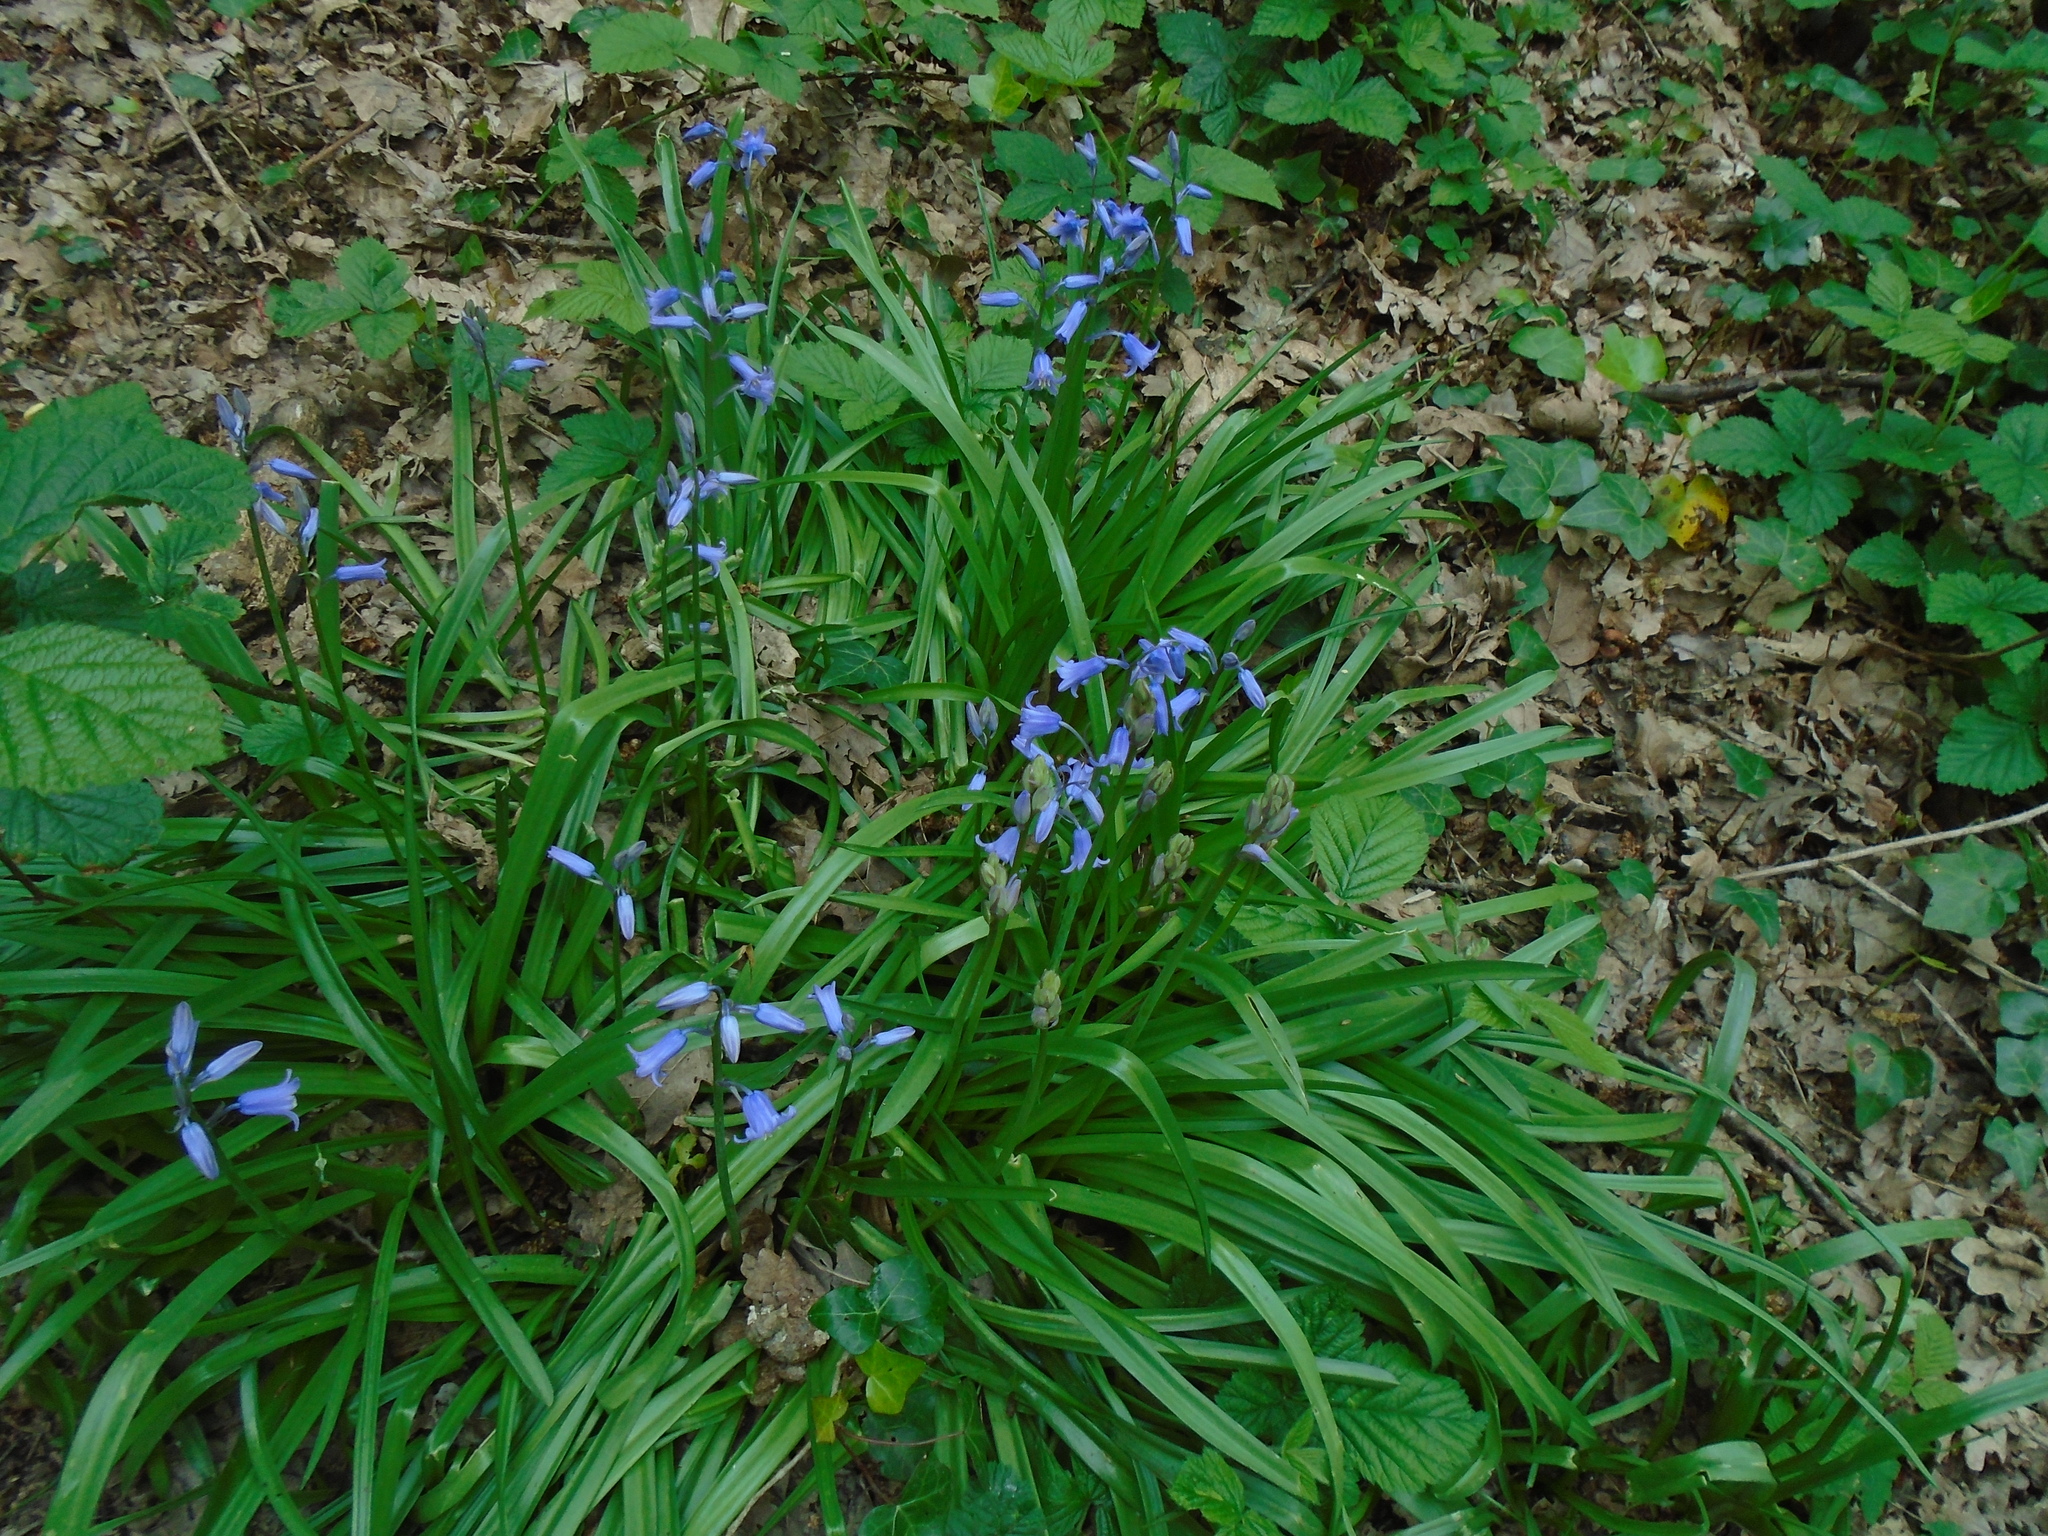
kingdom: Plantae
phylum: Tracheophyta
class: Liliopsida
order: Asparagales
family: Asparagaceae
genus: Hyacinthoides
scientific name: Hyacinthoides non-scripta
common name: Bluebell
